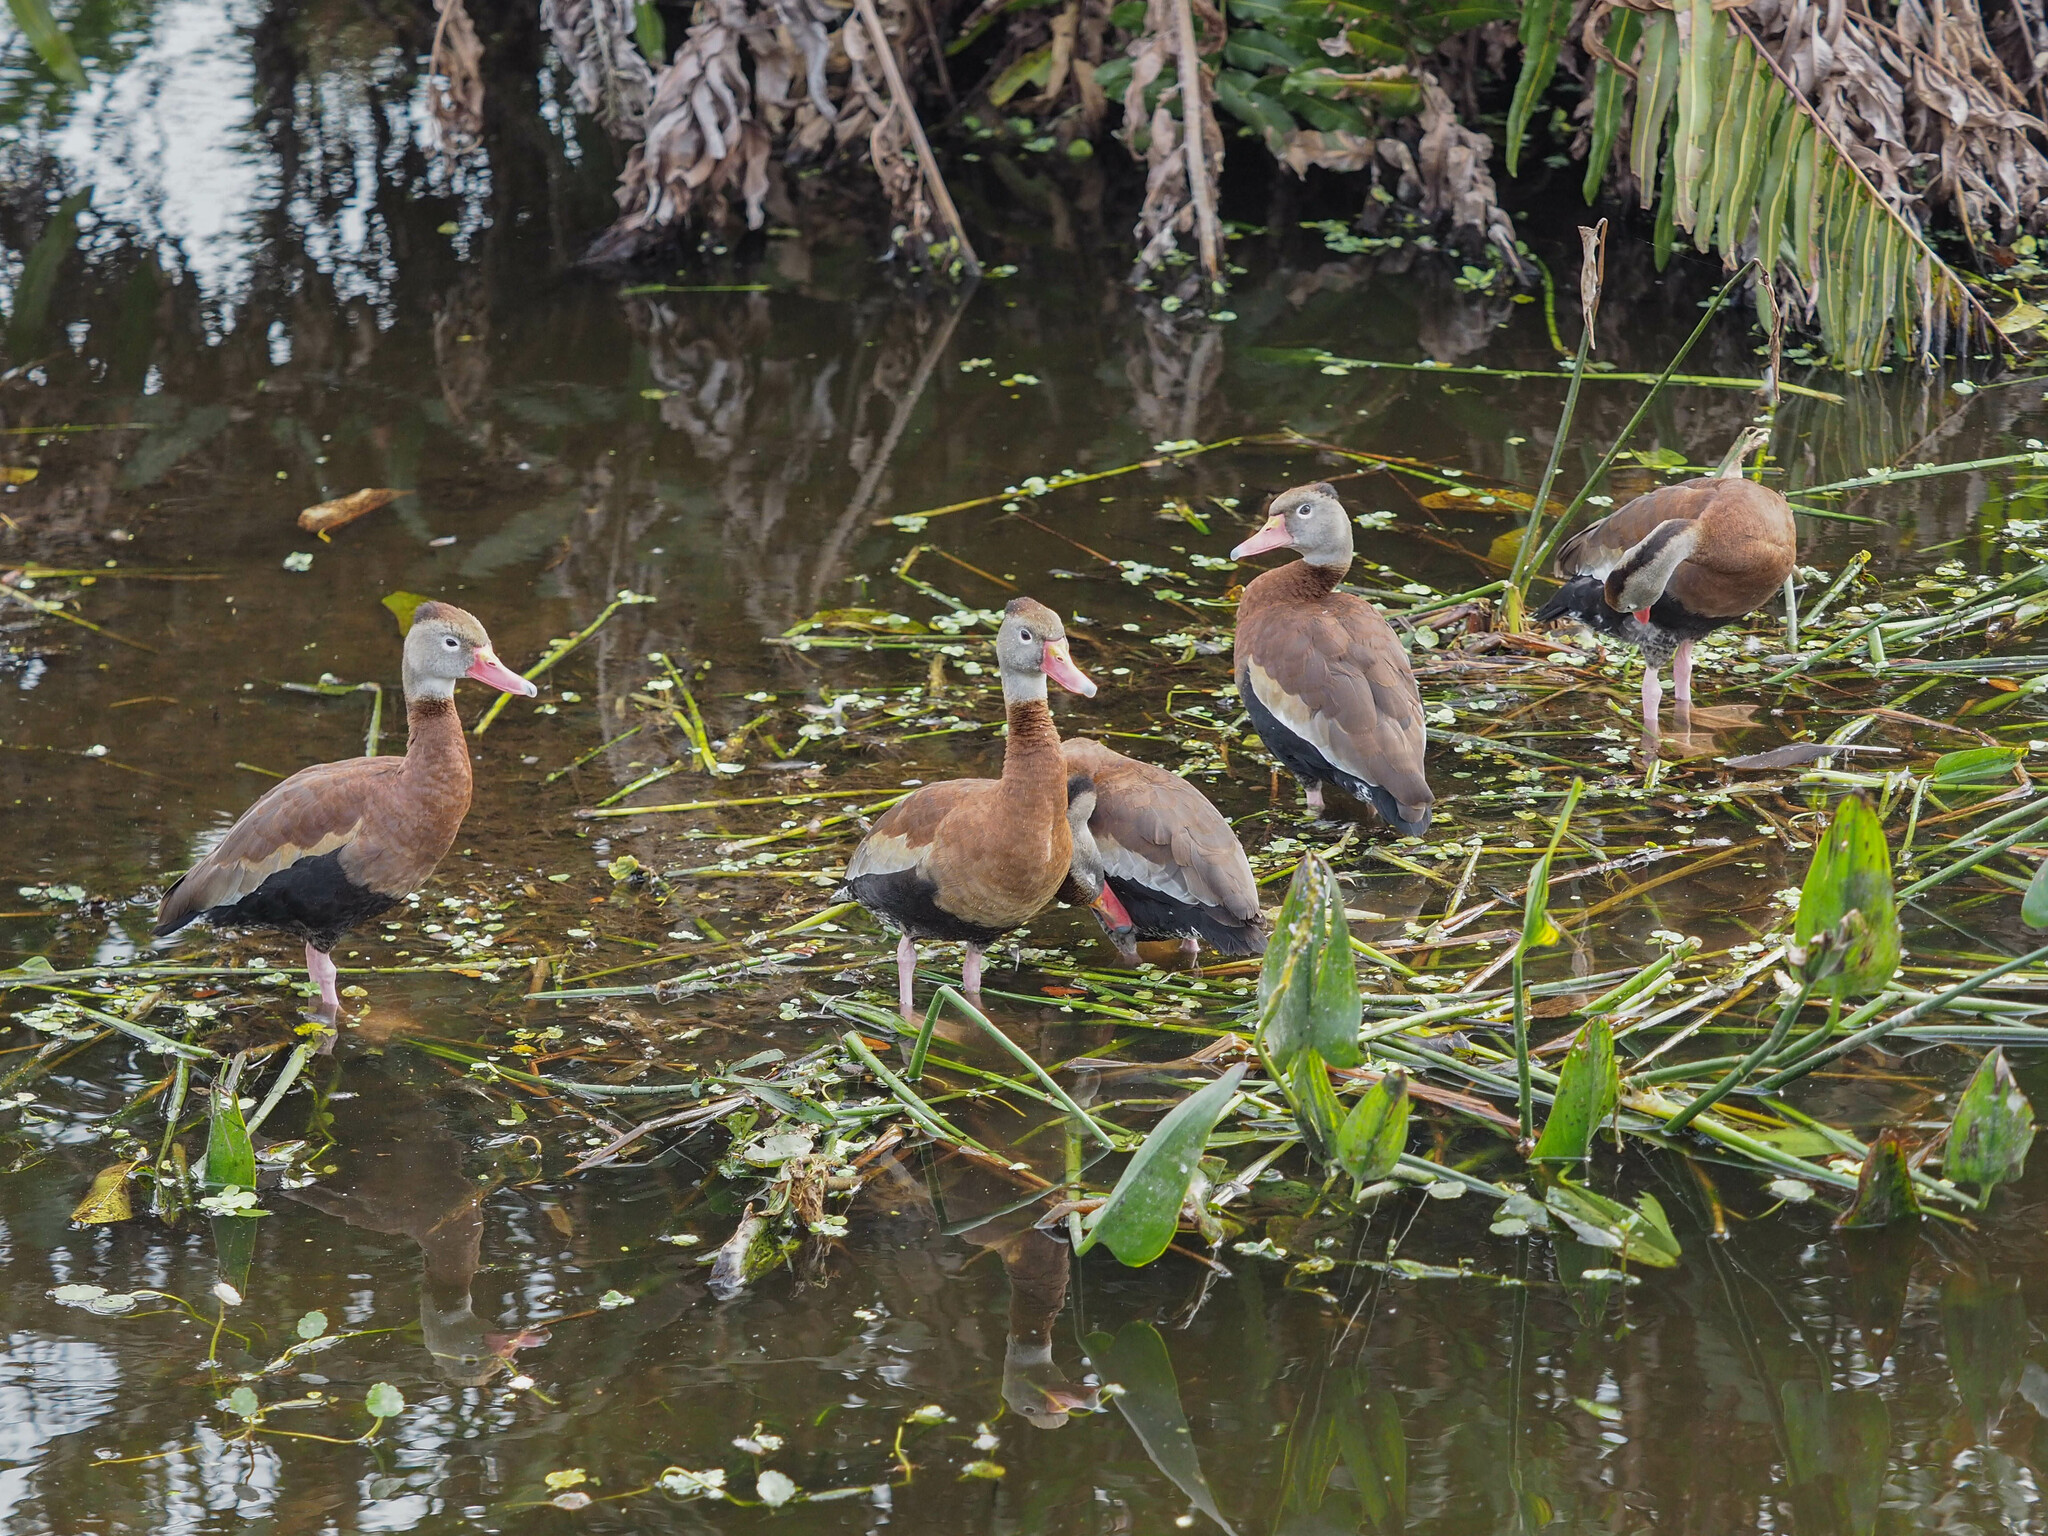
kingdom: Animalia
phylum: Chordata
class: Aves
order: Anseriformes
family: Anatidae
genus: Dendrocygna
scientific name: Dendrocygna autumnalis
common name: Black-bellied whistling duck
